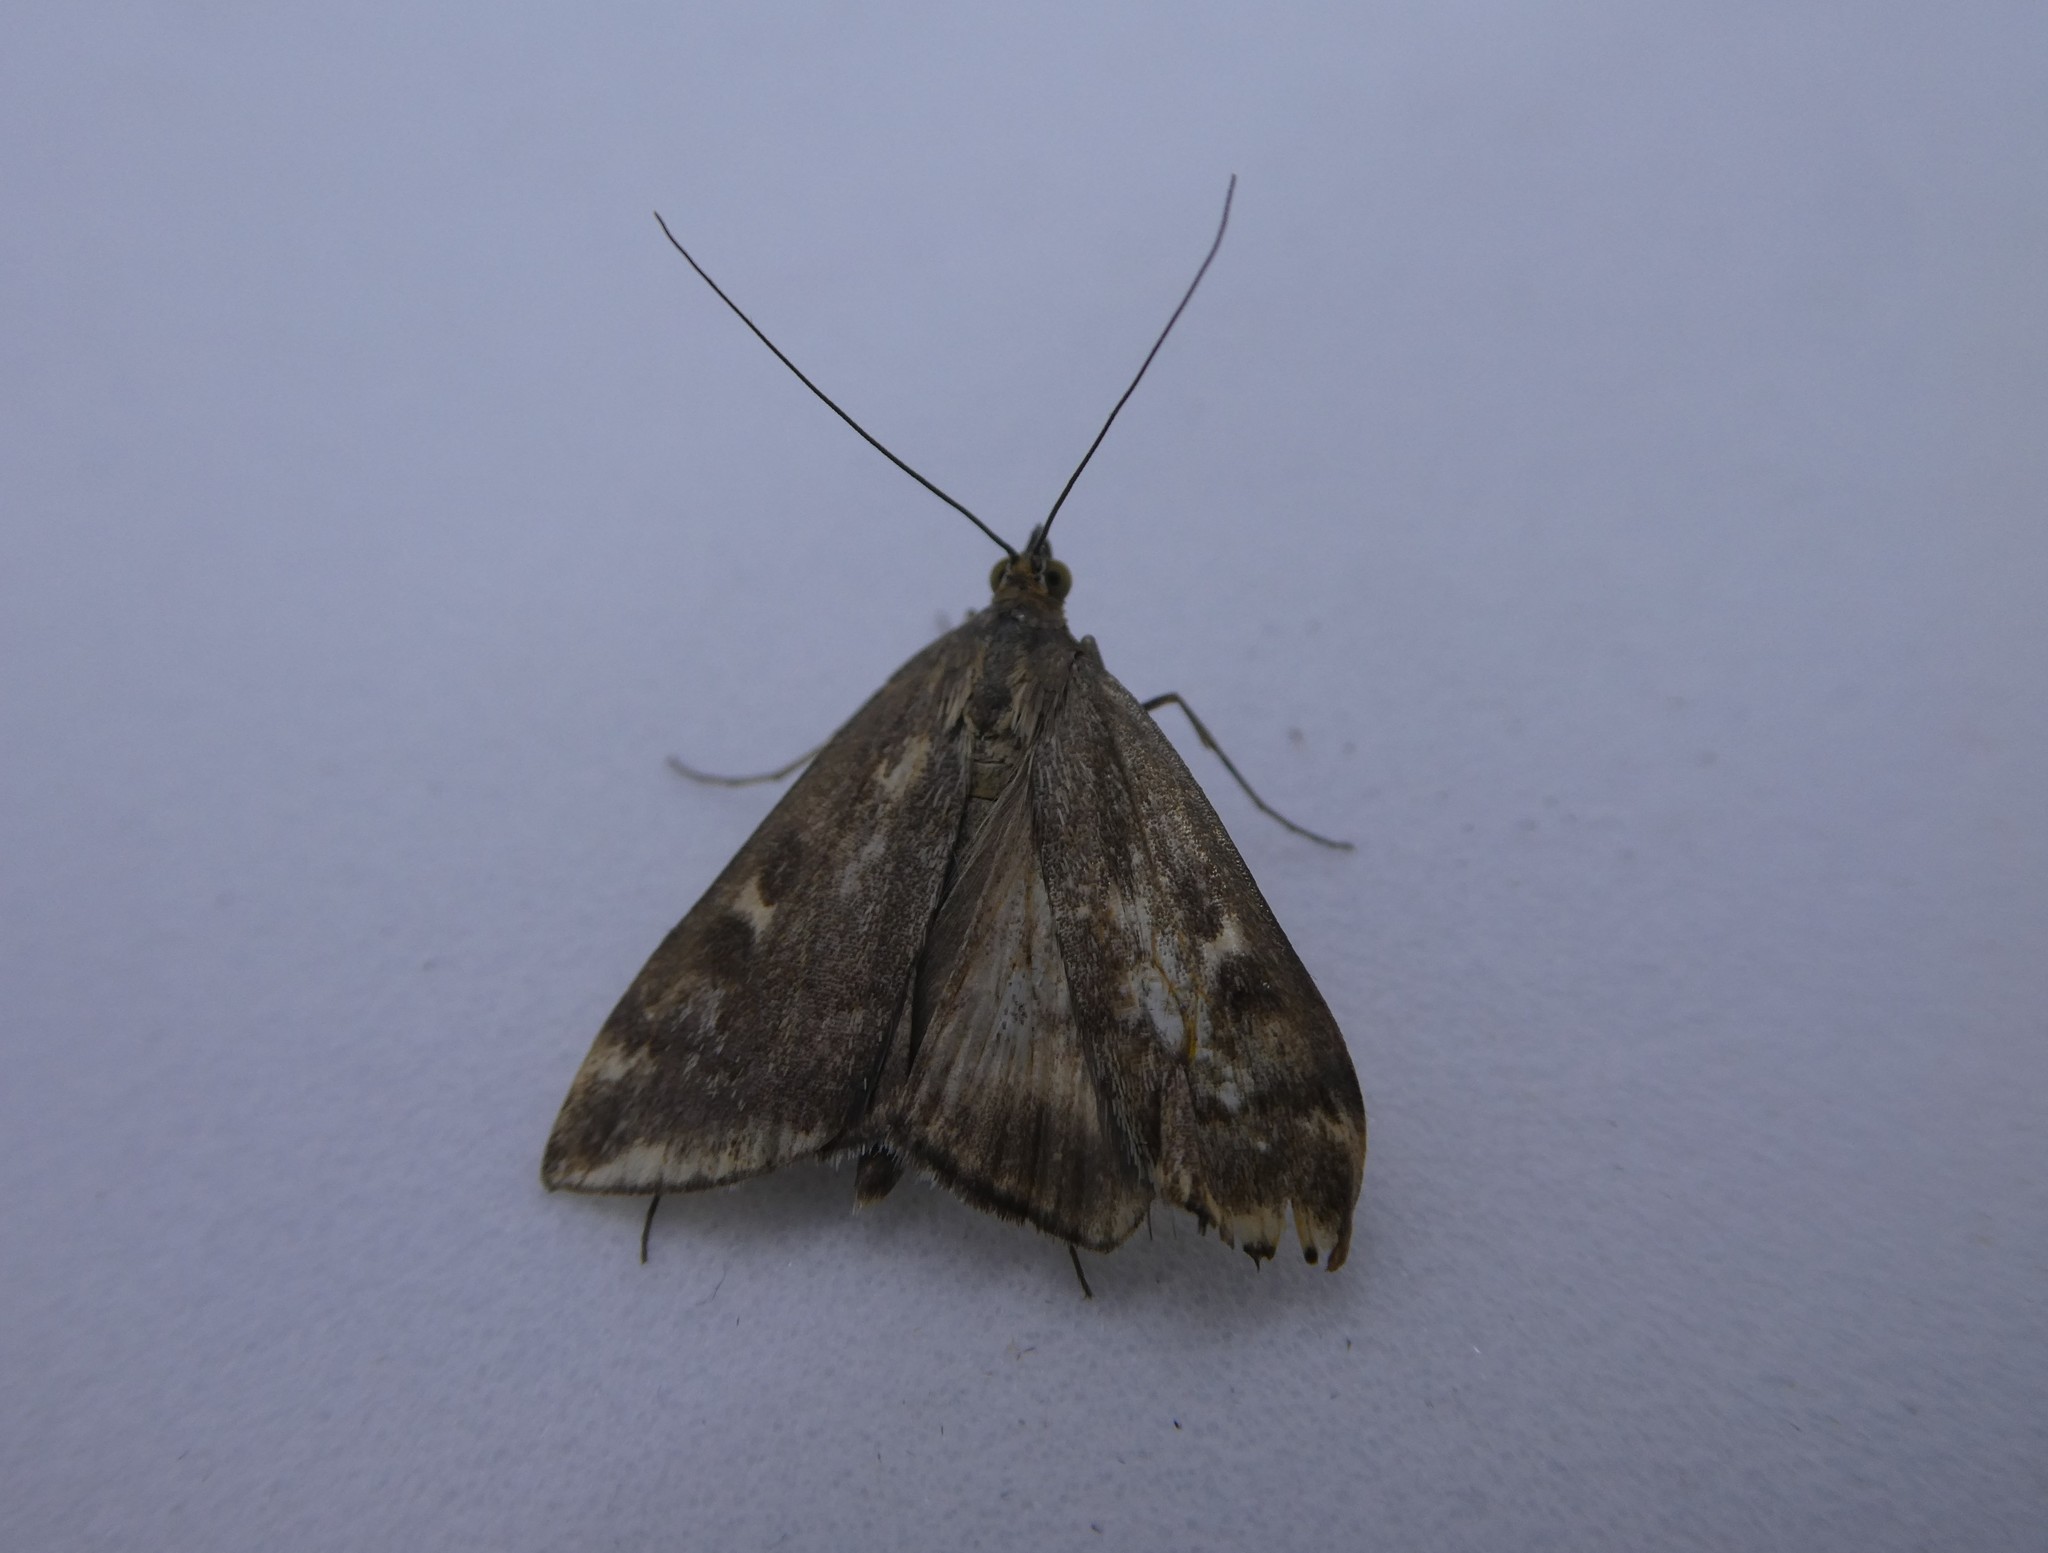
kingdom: Animalia
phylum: Arthropoda
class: Insecta
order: Lepidoptera
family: Crambidae
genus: Loxostege
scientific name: Loxostege
